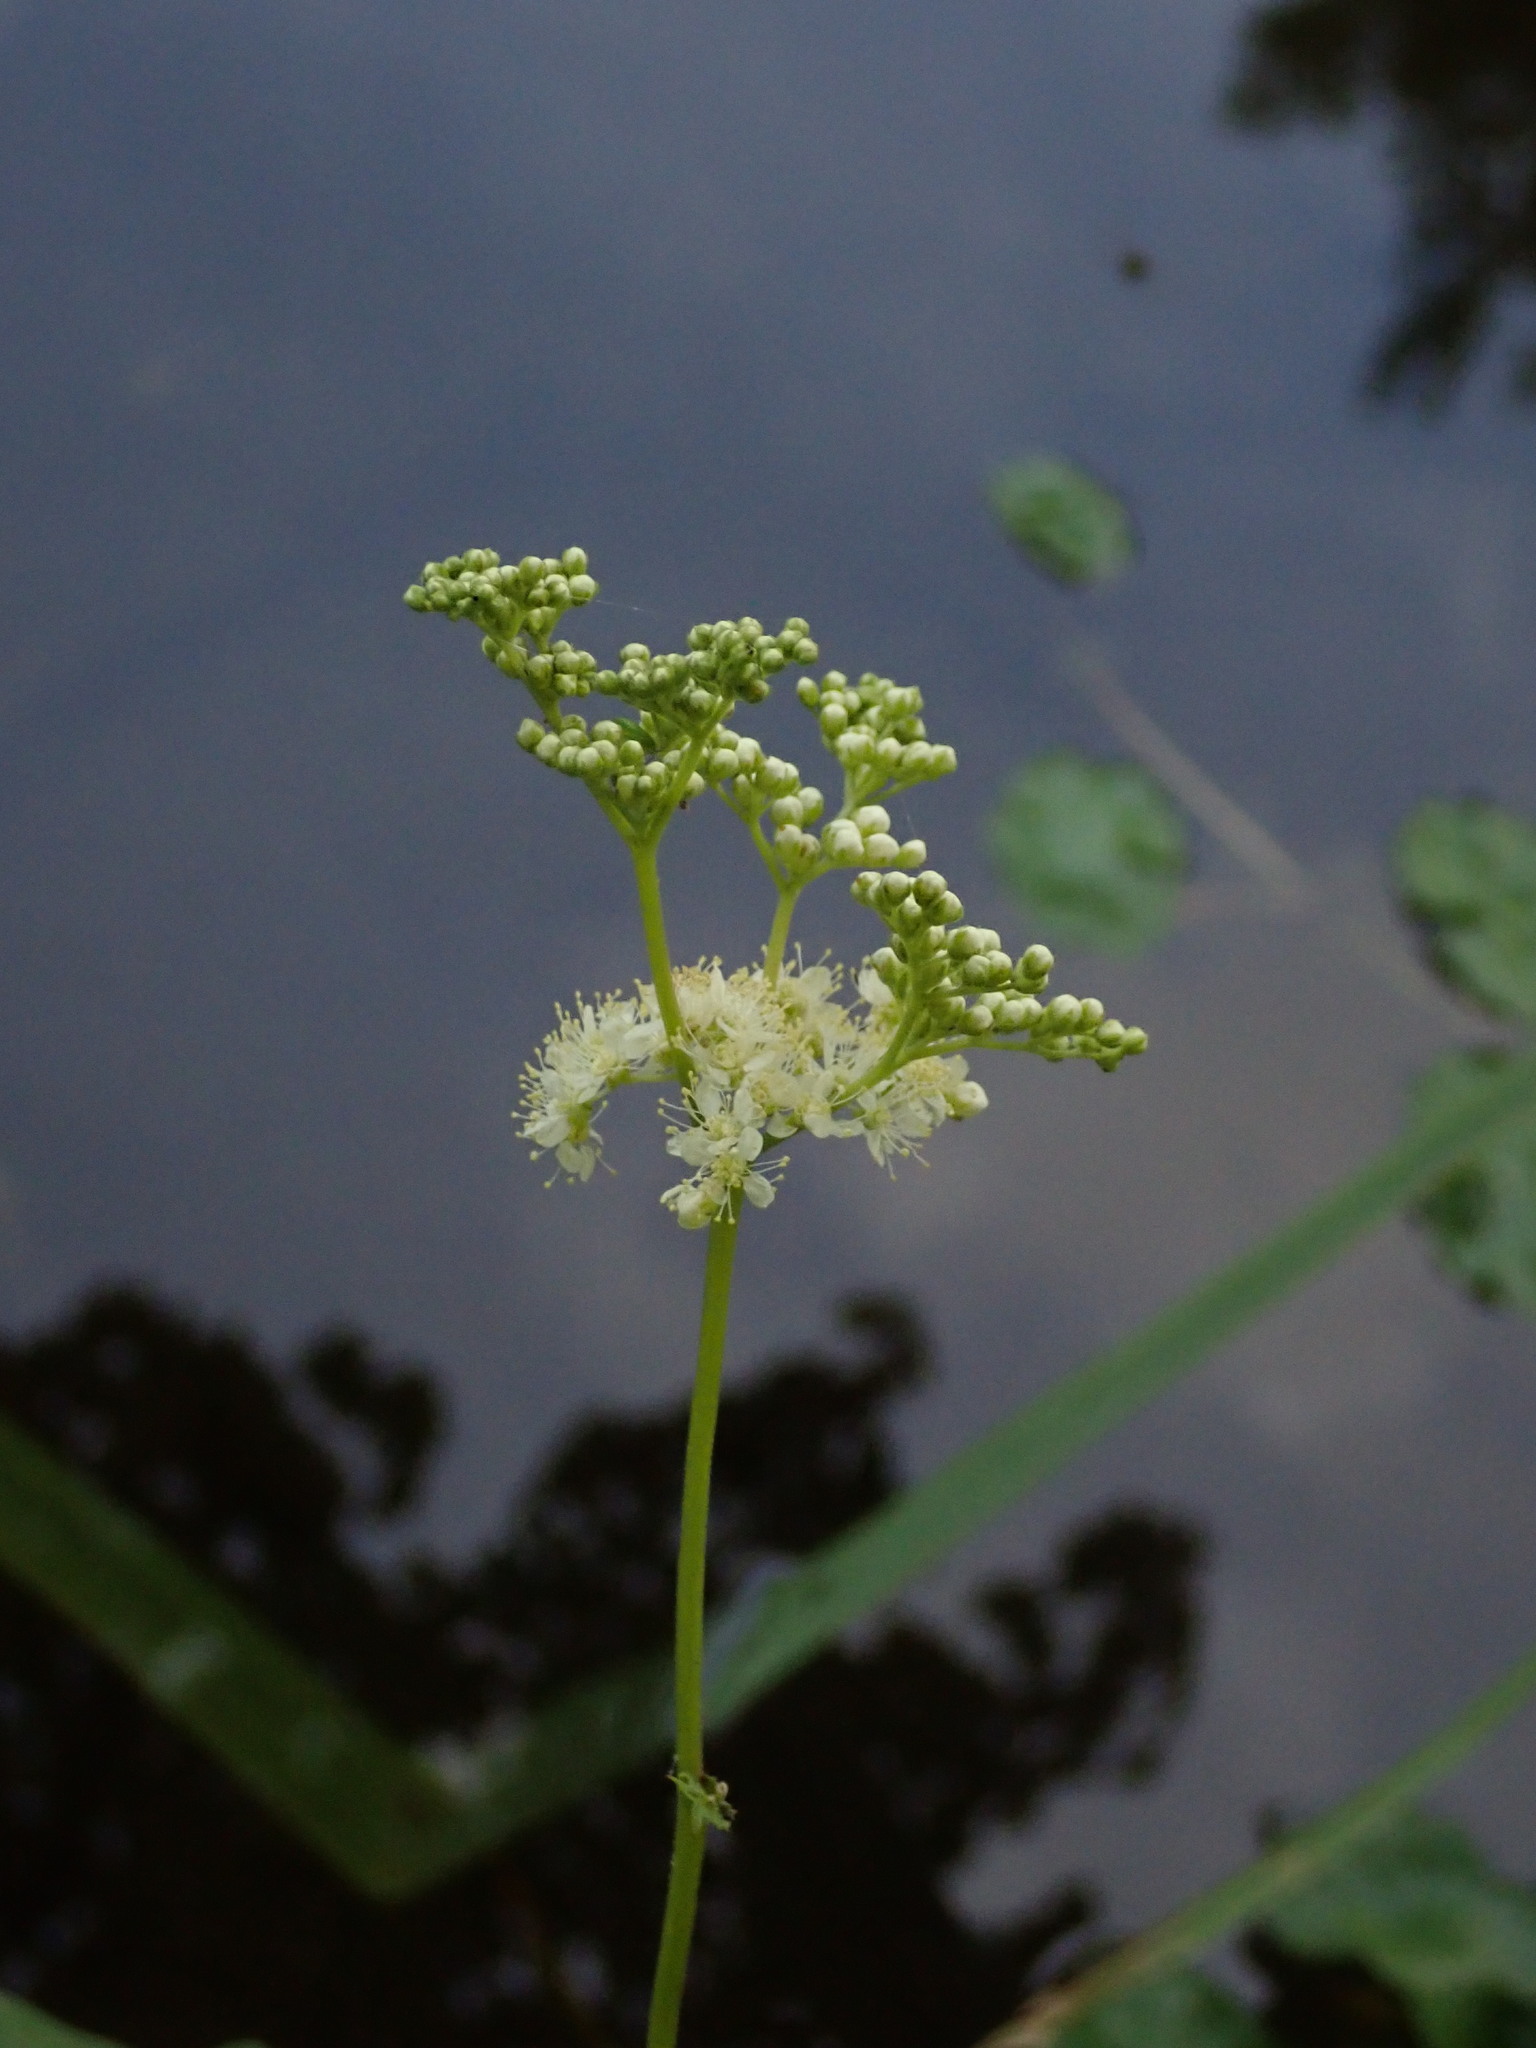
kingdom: Plantae
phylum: Tracheophyta
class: Magnoliopsida
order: Rosales
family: Rosaceae
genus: Filipendula
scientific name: Filipendula ulmaria
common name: Meadowsweet
